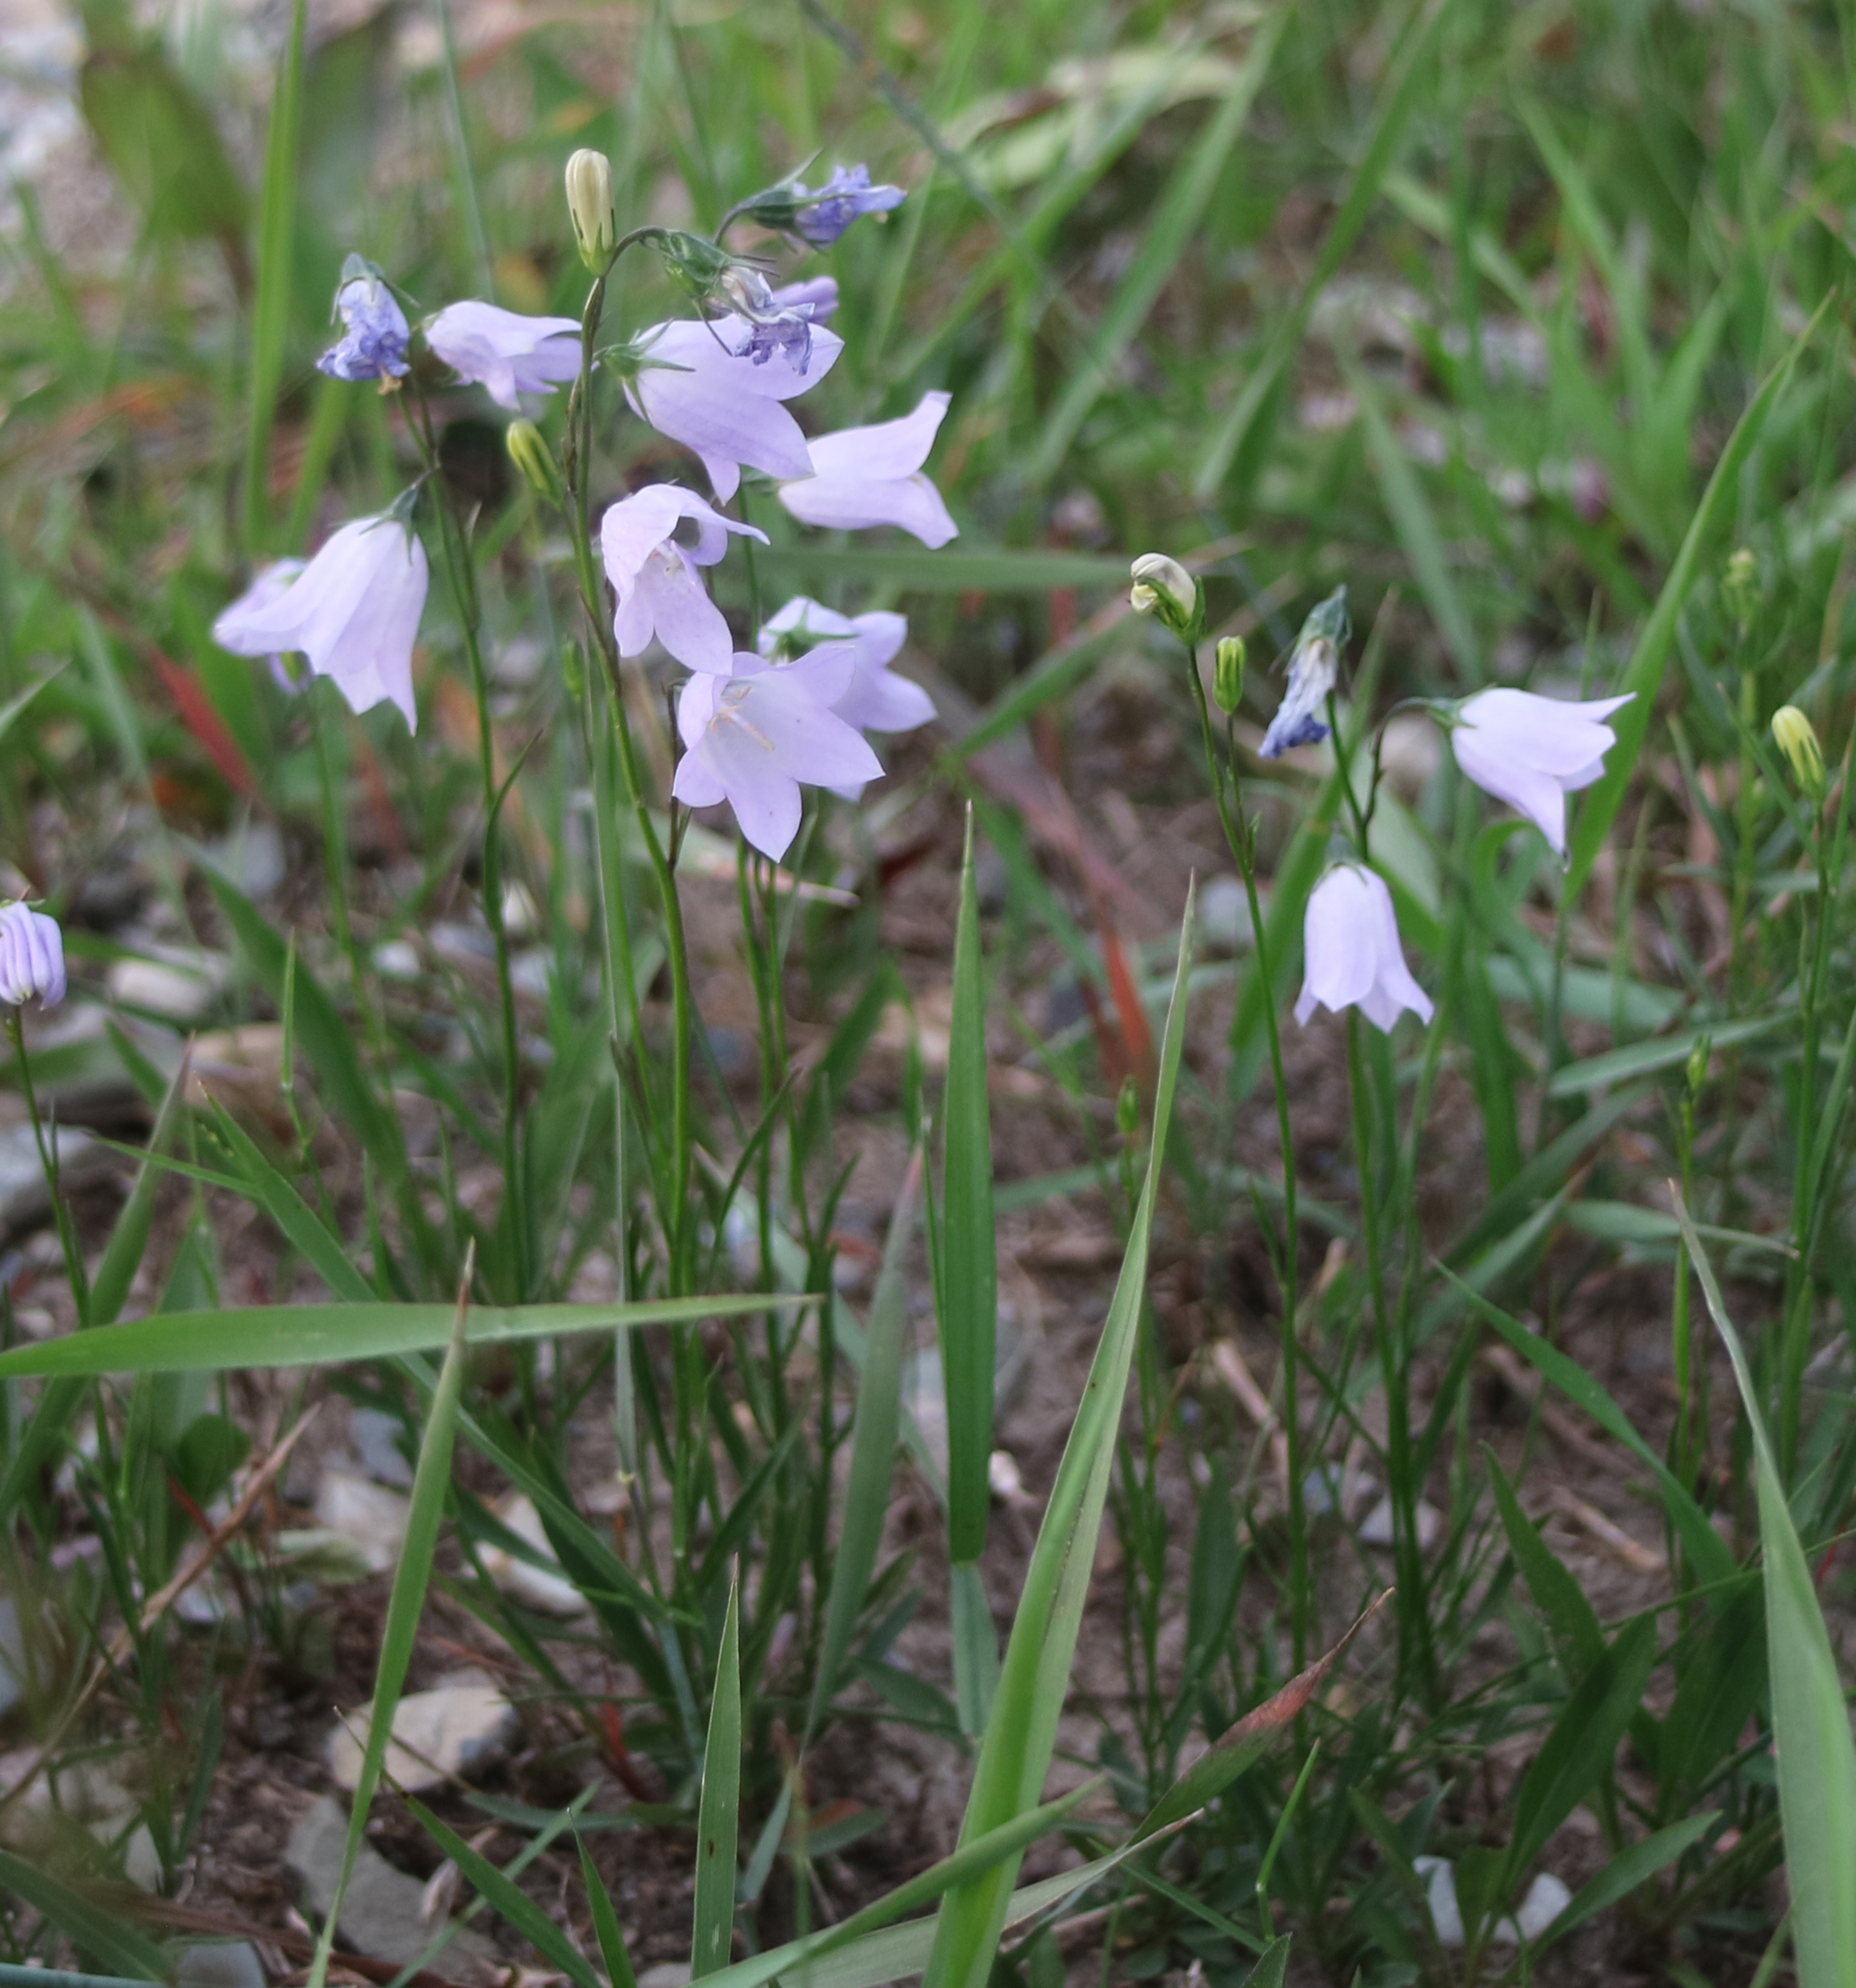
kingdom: Plantae
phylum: Tracheophyta
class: Magnoliopsida
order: Asterales
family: Campanulaceae
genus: Campanula
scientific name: Campanula alaskana
